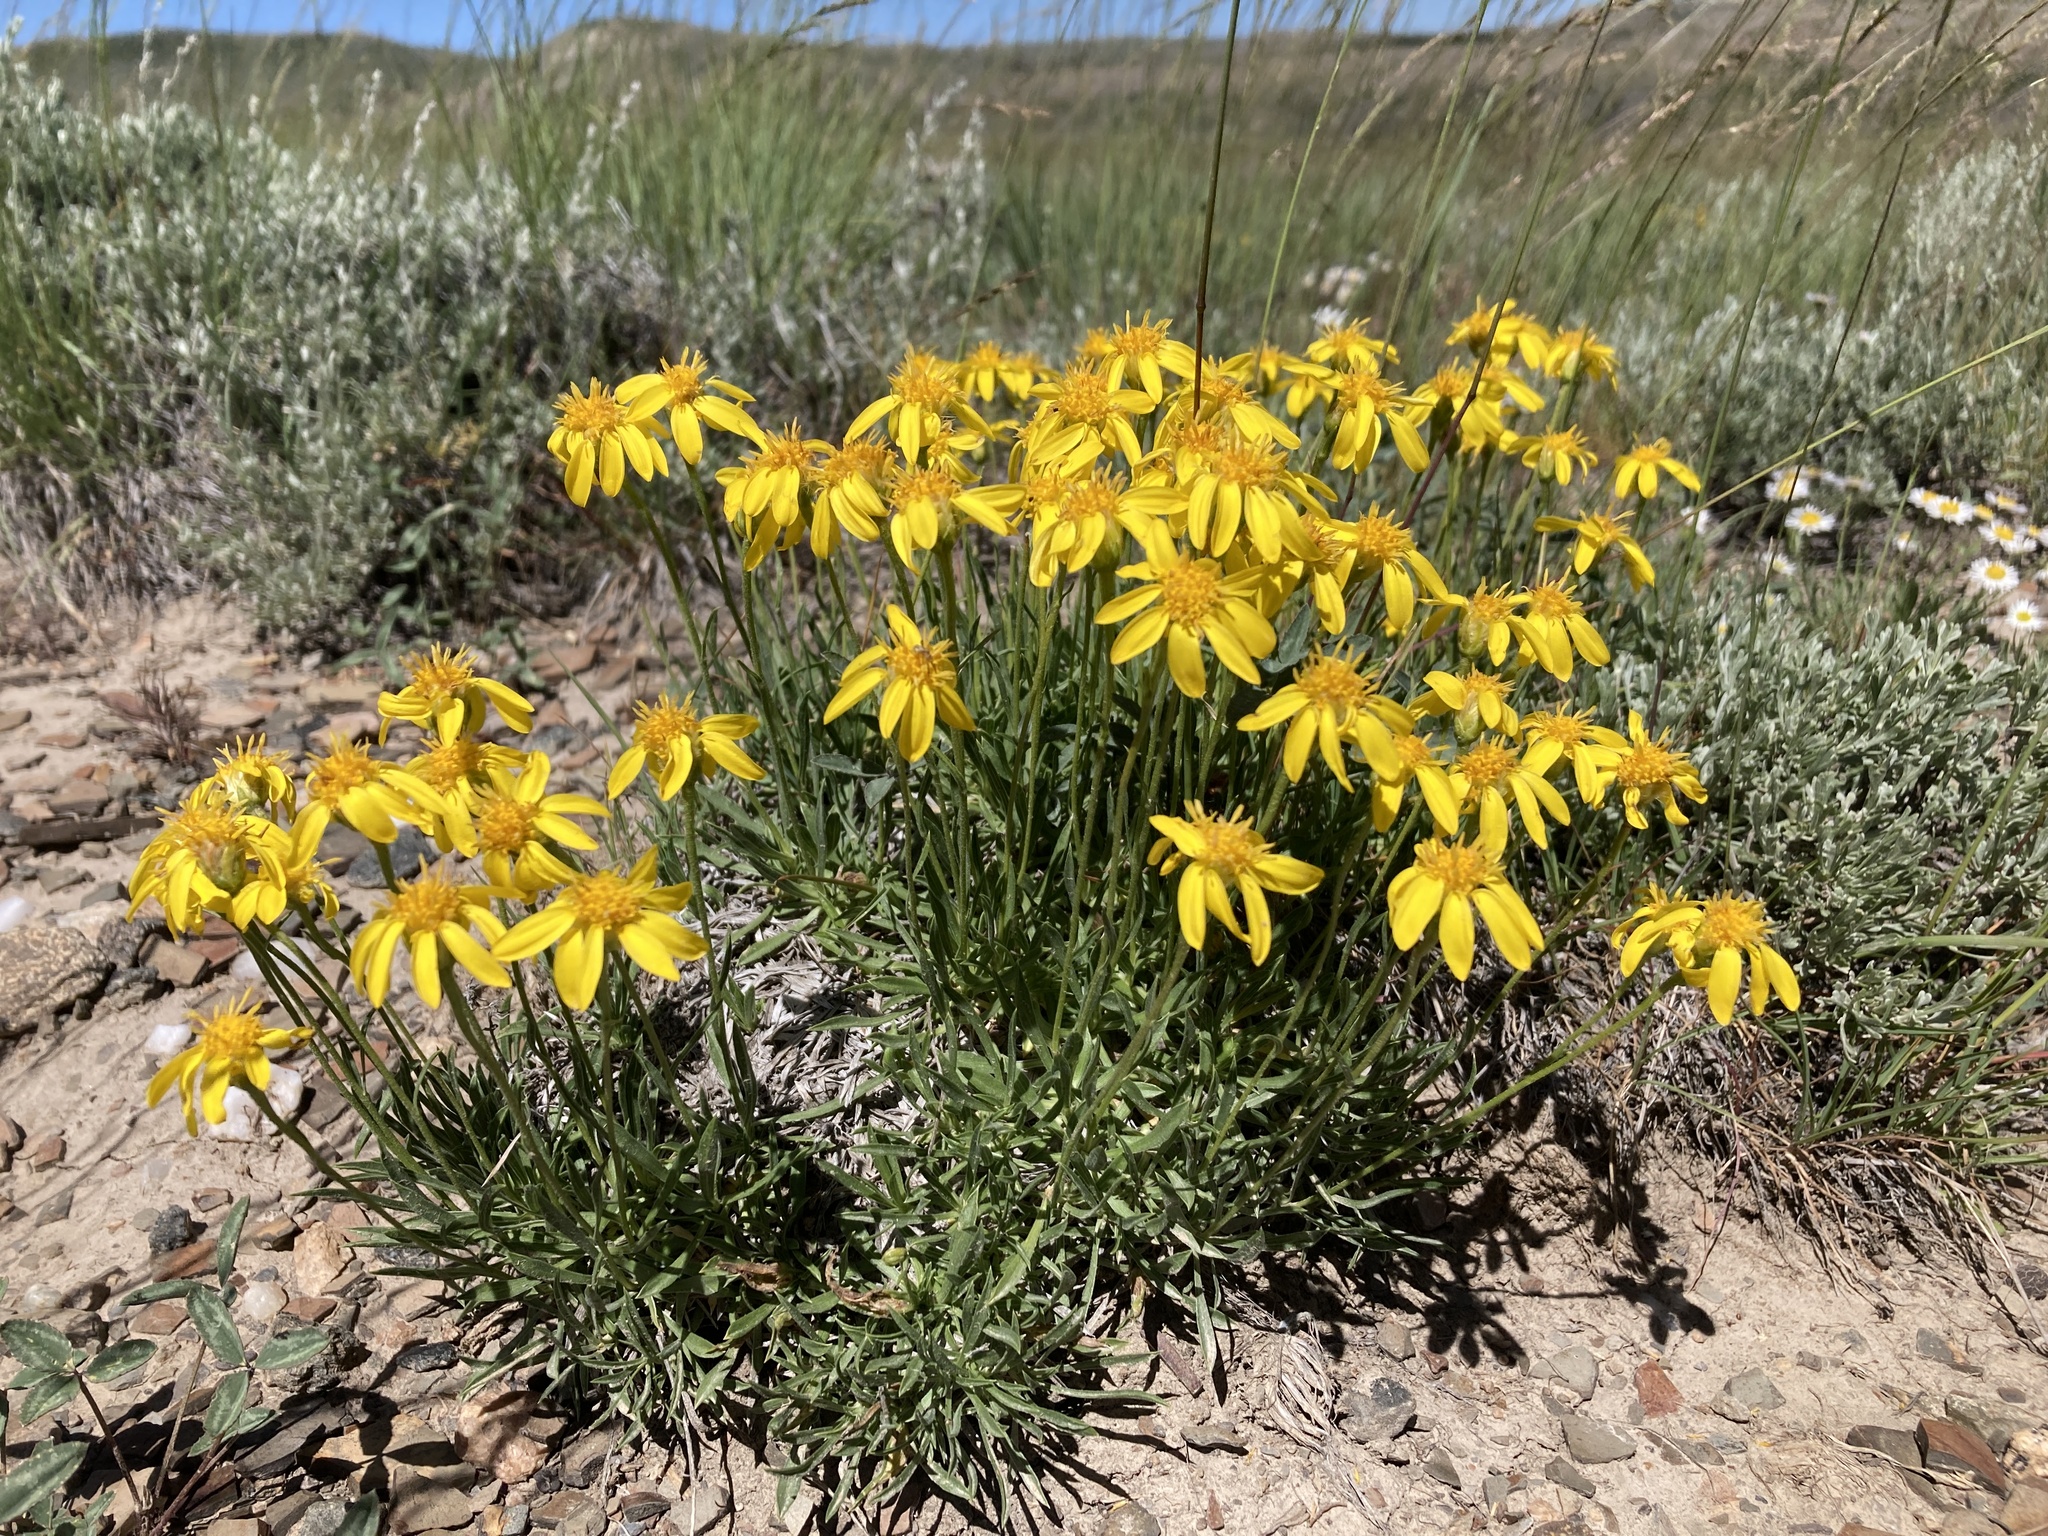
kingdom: Plantae
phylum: Tracheophyta
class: Magnoliopsida
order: Asterales
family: Asteraceae
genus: Stenotus
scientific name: Stenotus acaulis
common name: Stemless goldenweed
